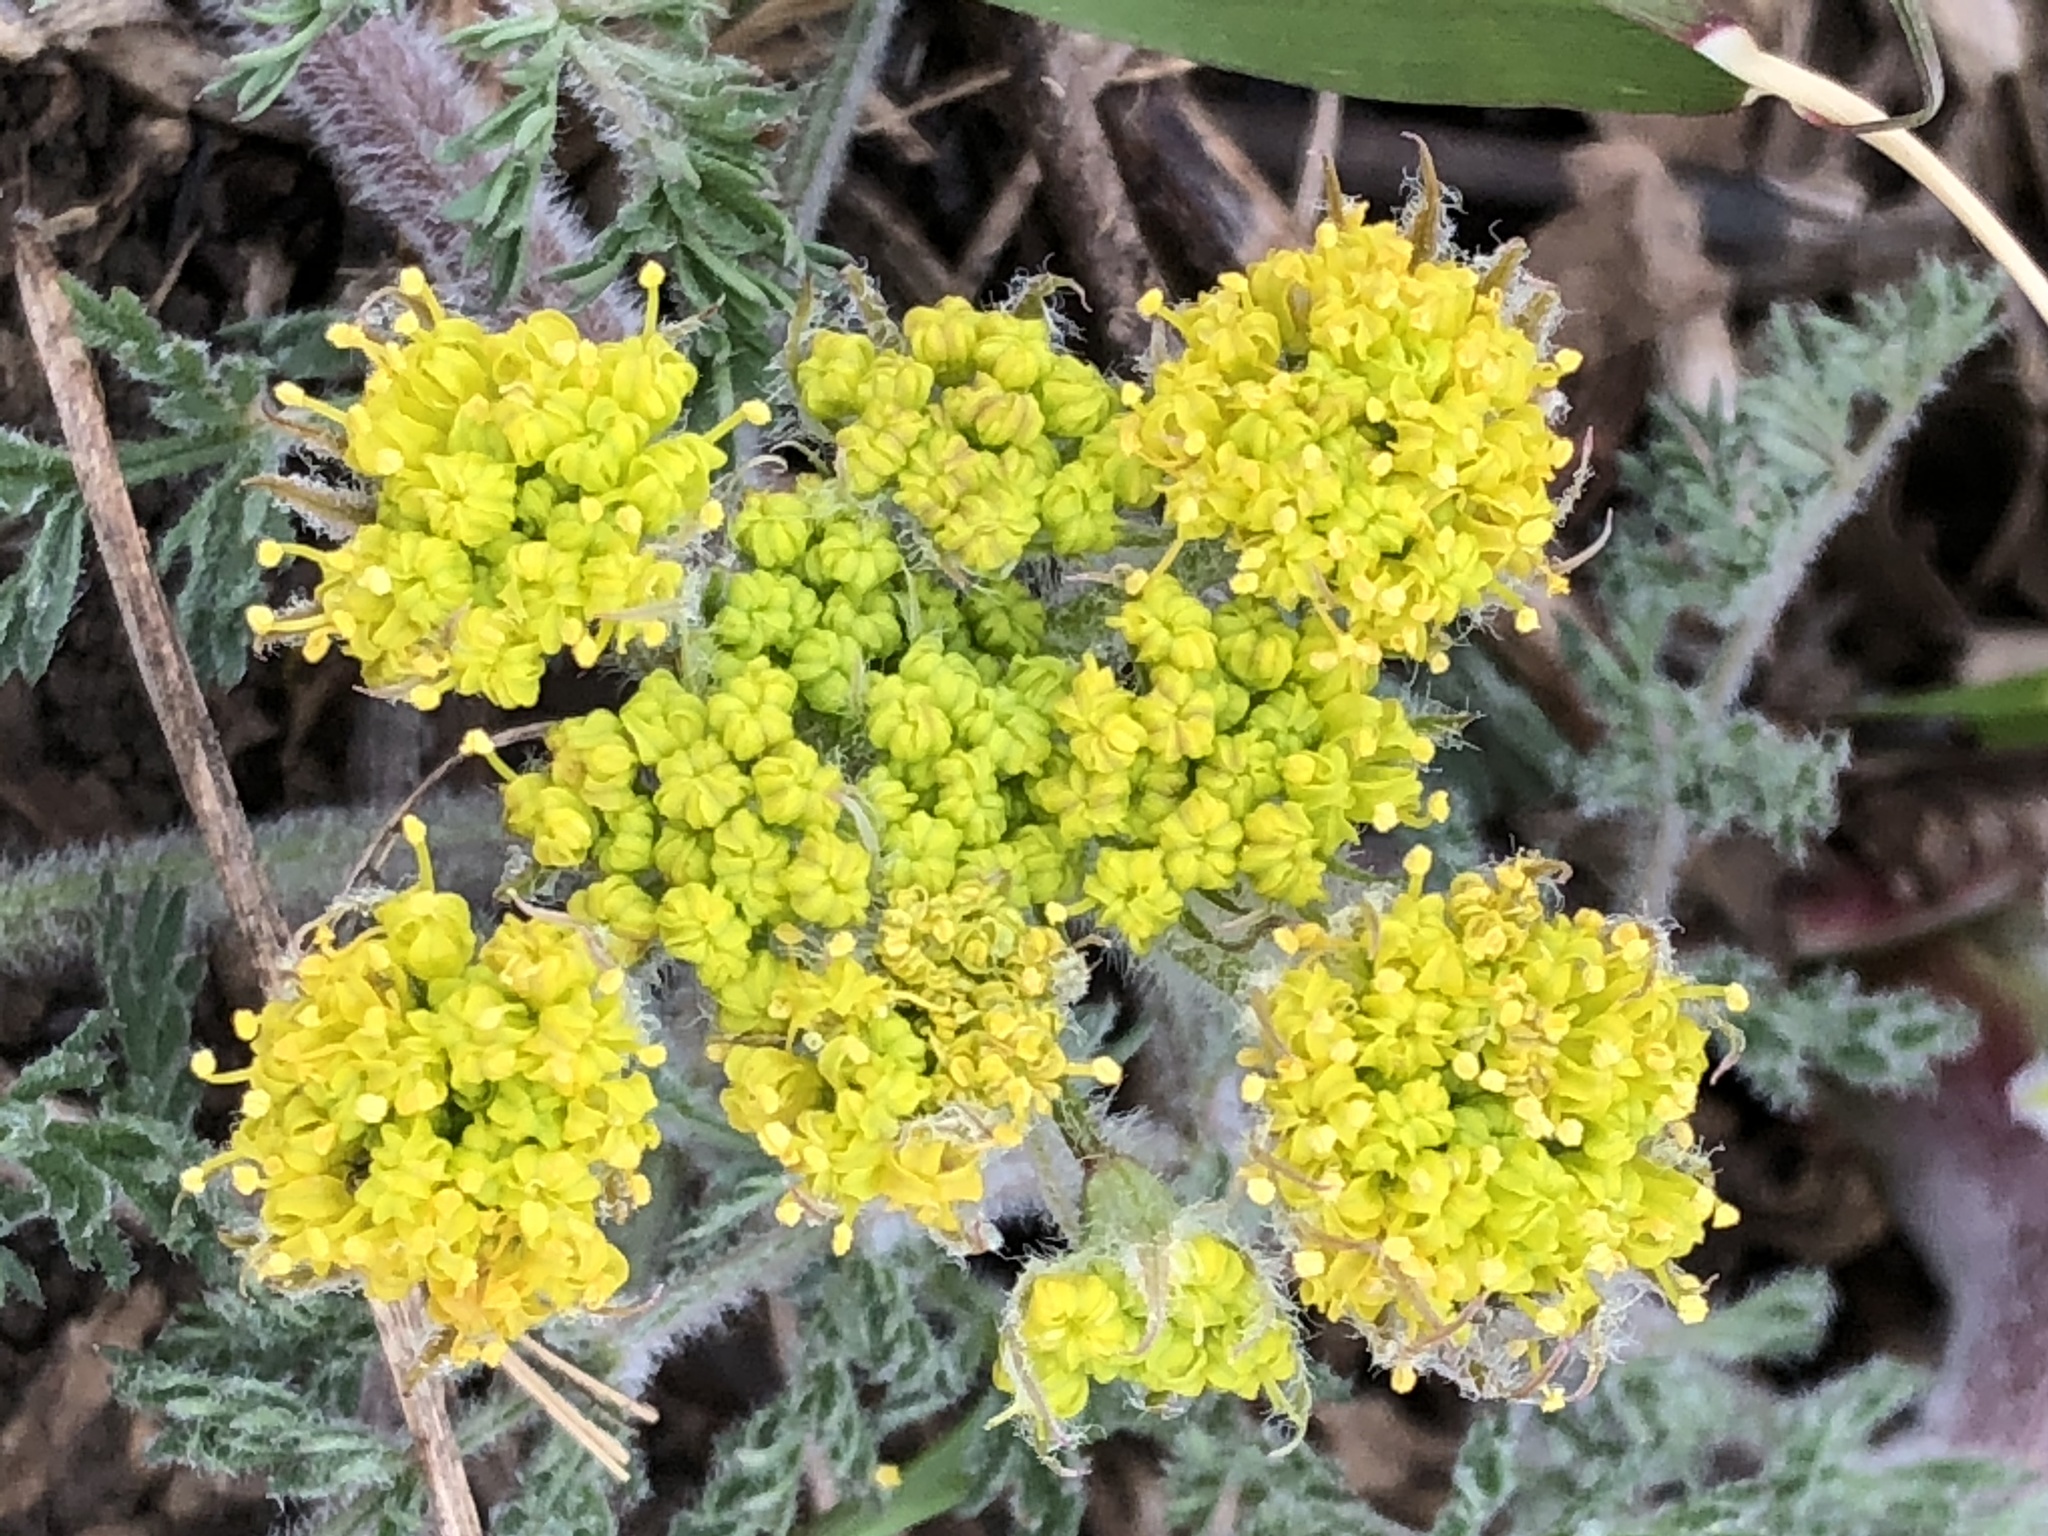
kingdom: Plantae
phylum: Tracheophyta
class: Magnoliopsida
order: Apiales
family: Apiaceae
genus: Lomatium
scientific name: Lomatium foeniculaceum
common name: Desert-parsley
